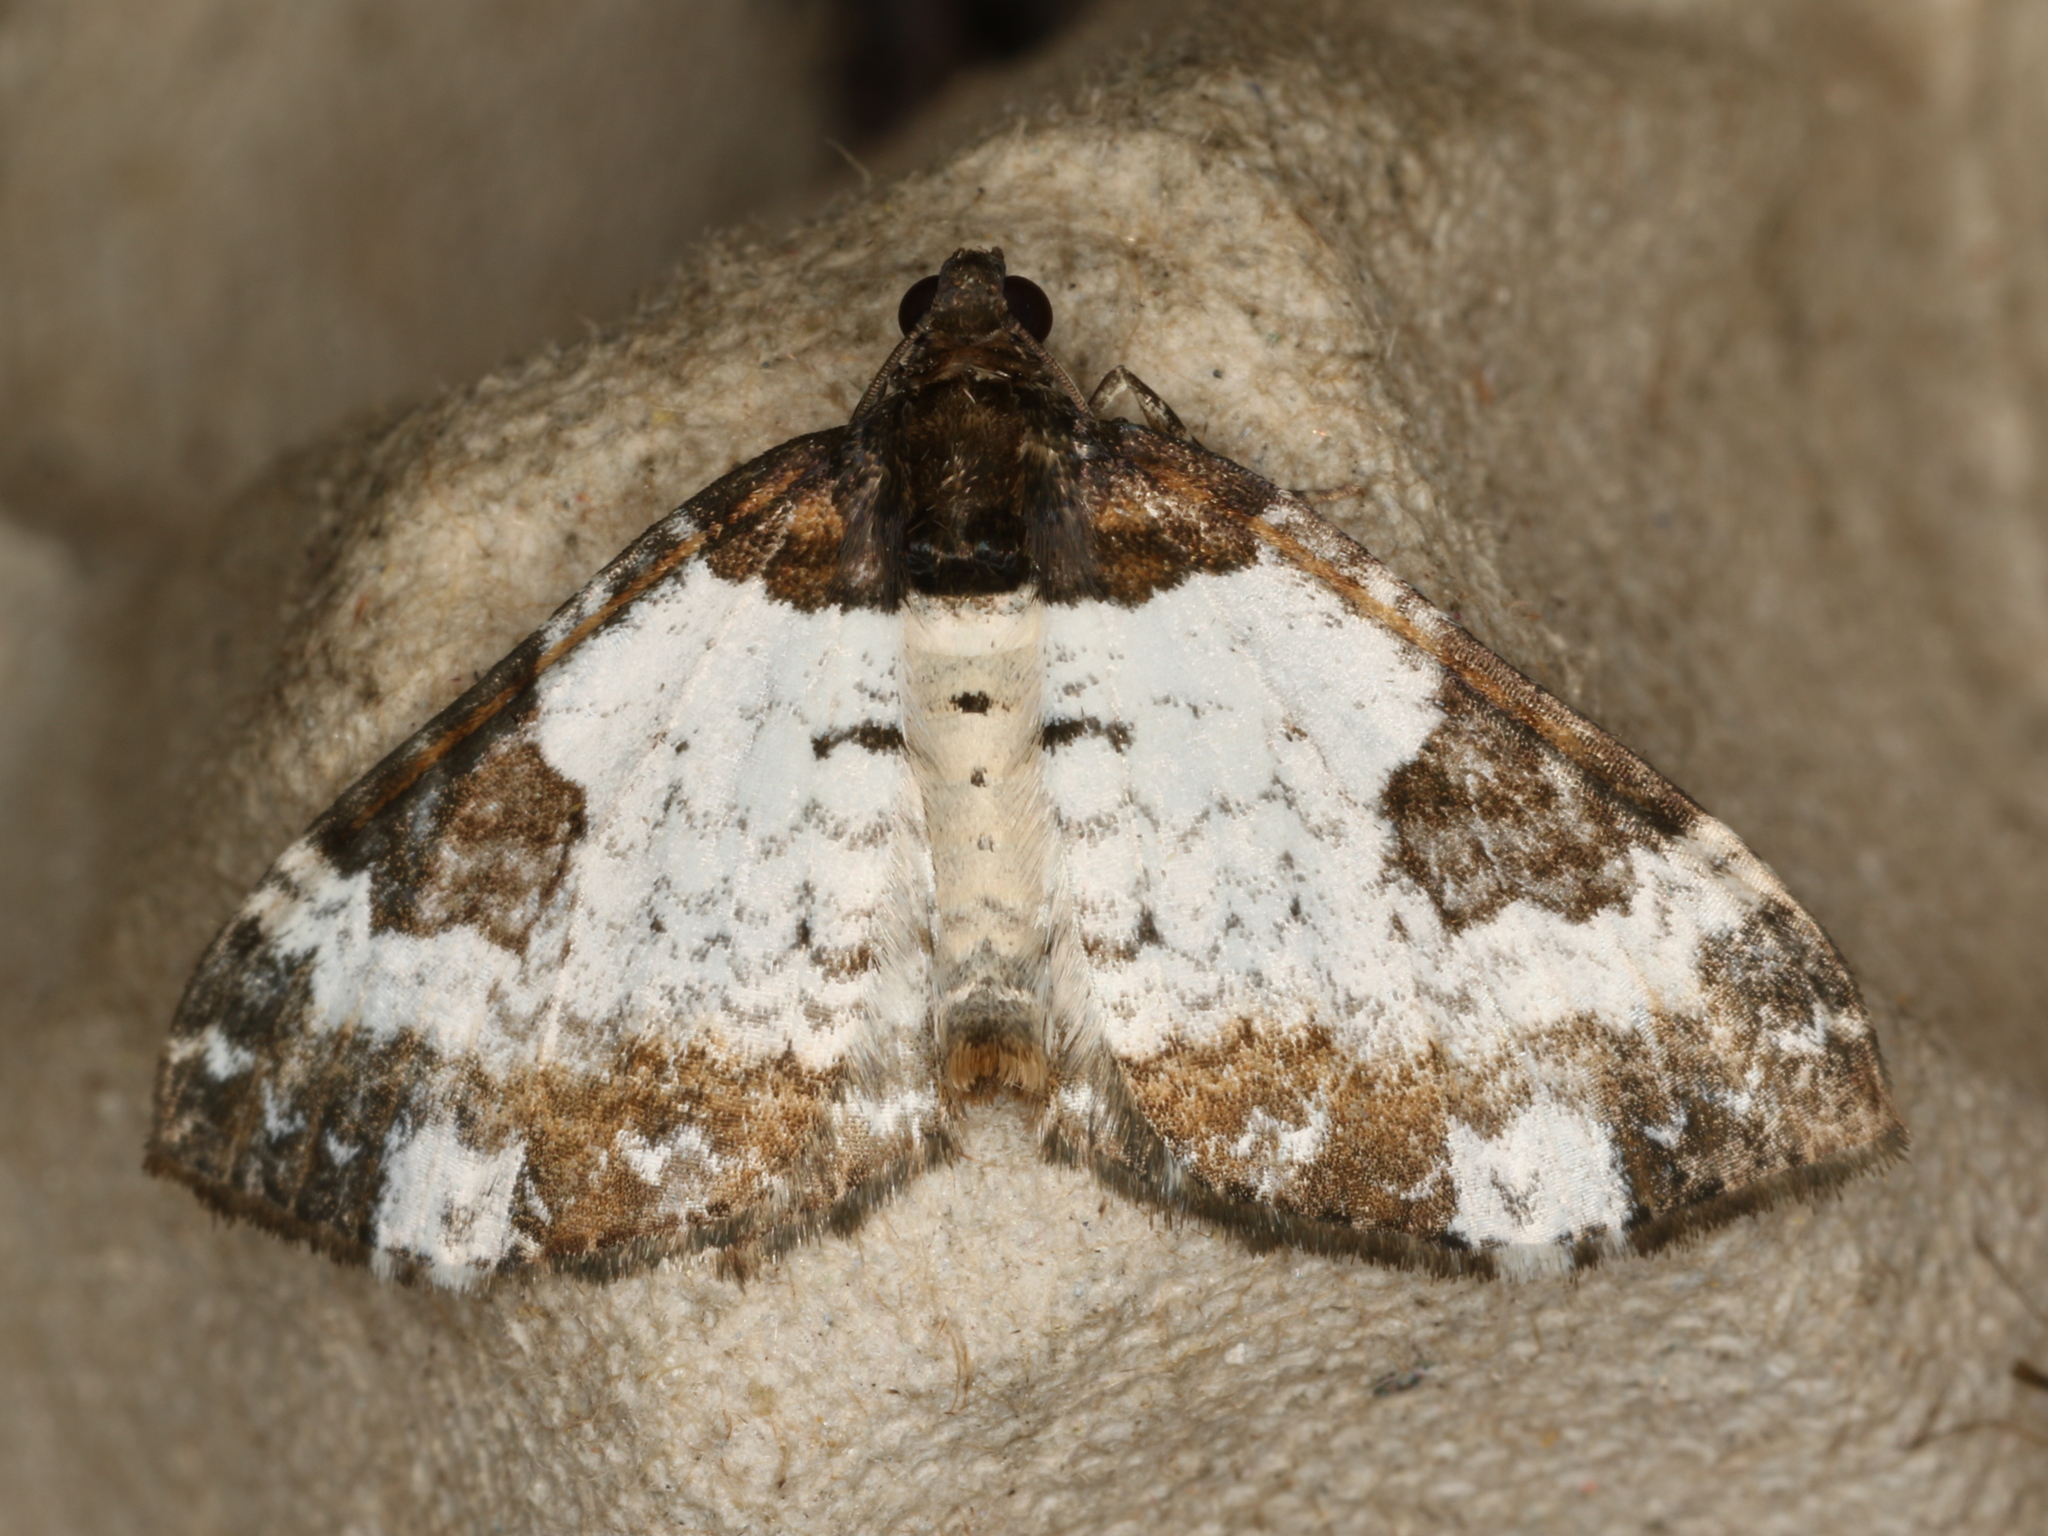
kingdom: Animalia
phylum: Arthropoda
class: Insecta
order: Lepidoptera
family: Geometridae
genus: Melanthia
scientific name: Melanthia procellata
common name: Pretty chalk carpet
